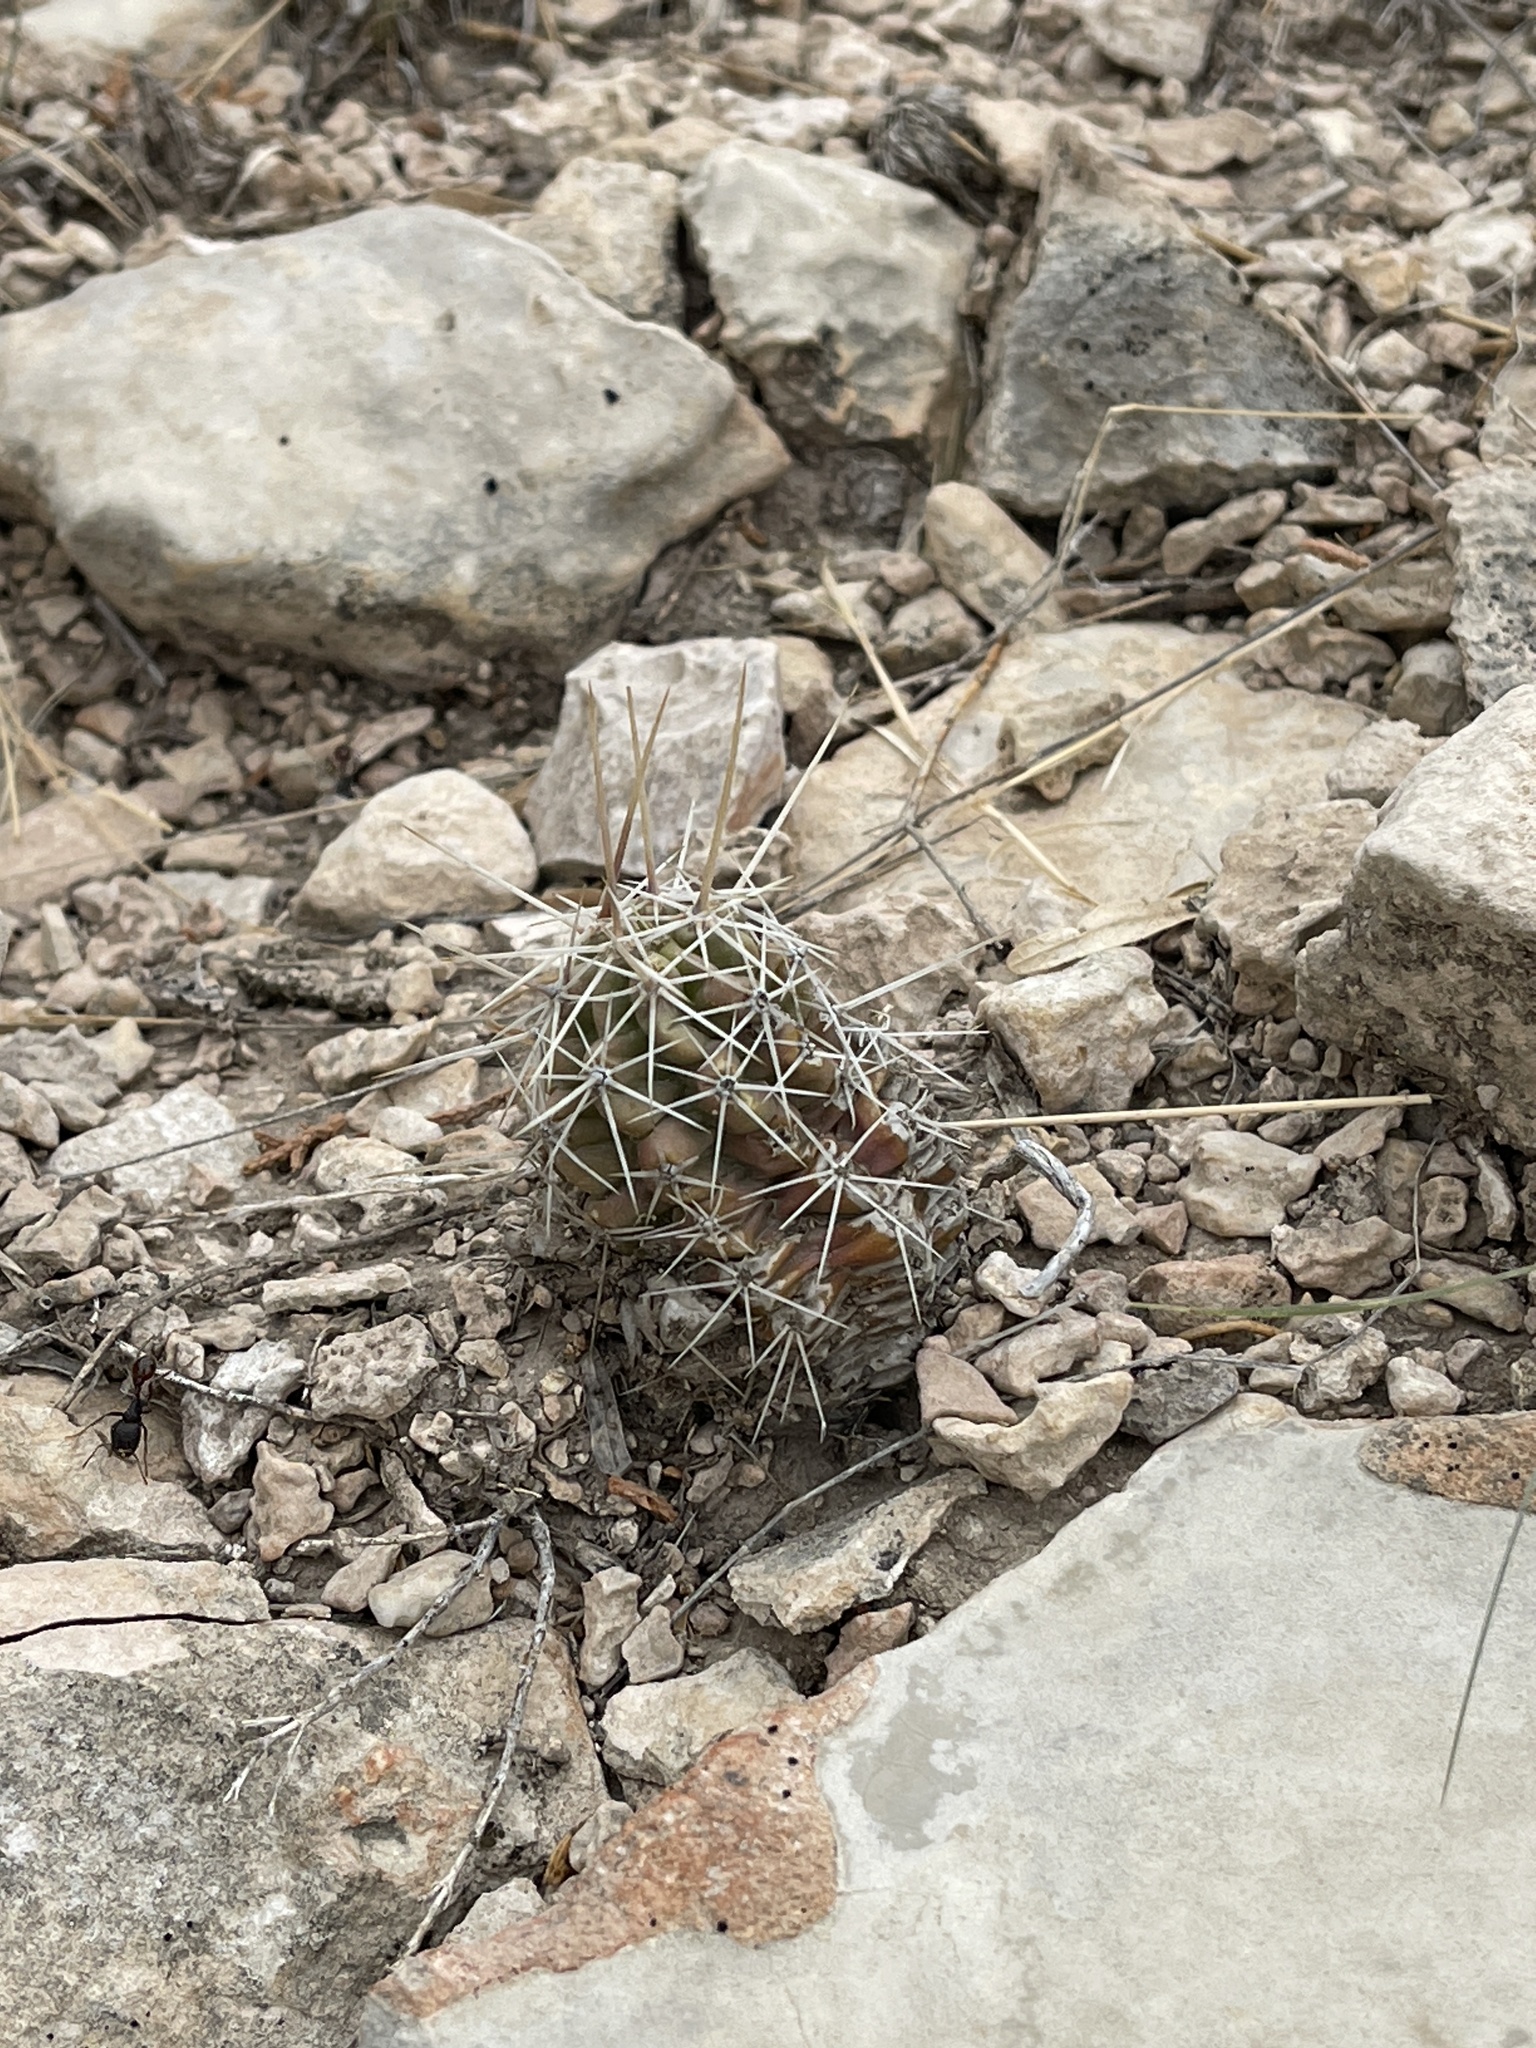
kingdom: Plantae
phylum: Tracheophyta
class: Magnoliopsida
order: Caryophyllales
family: Cactaceae
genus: Echinocereus
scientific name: Echinocereus enneacanthus
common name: Pitaya
